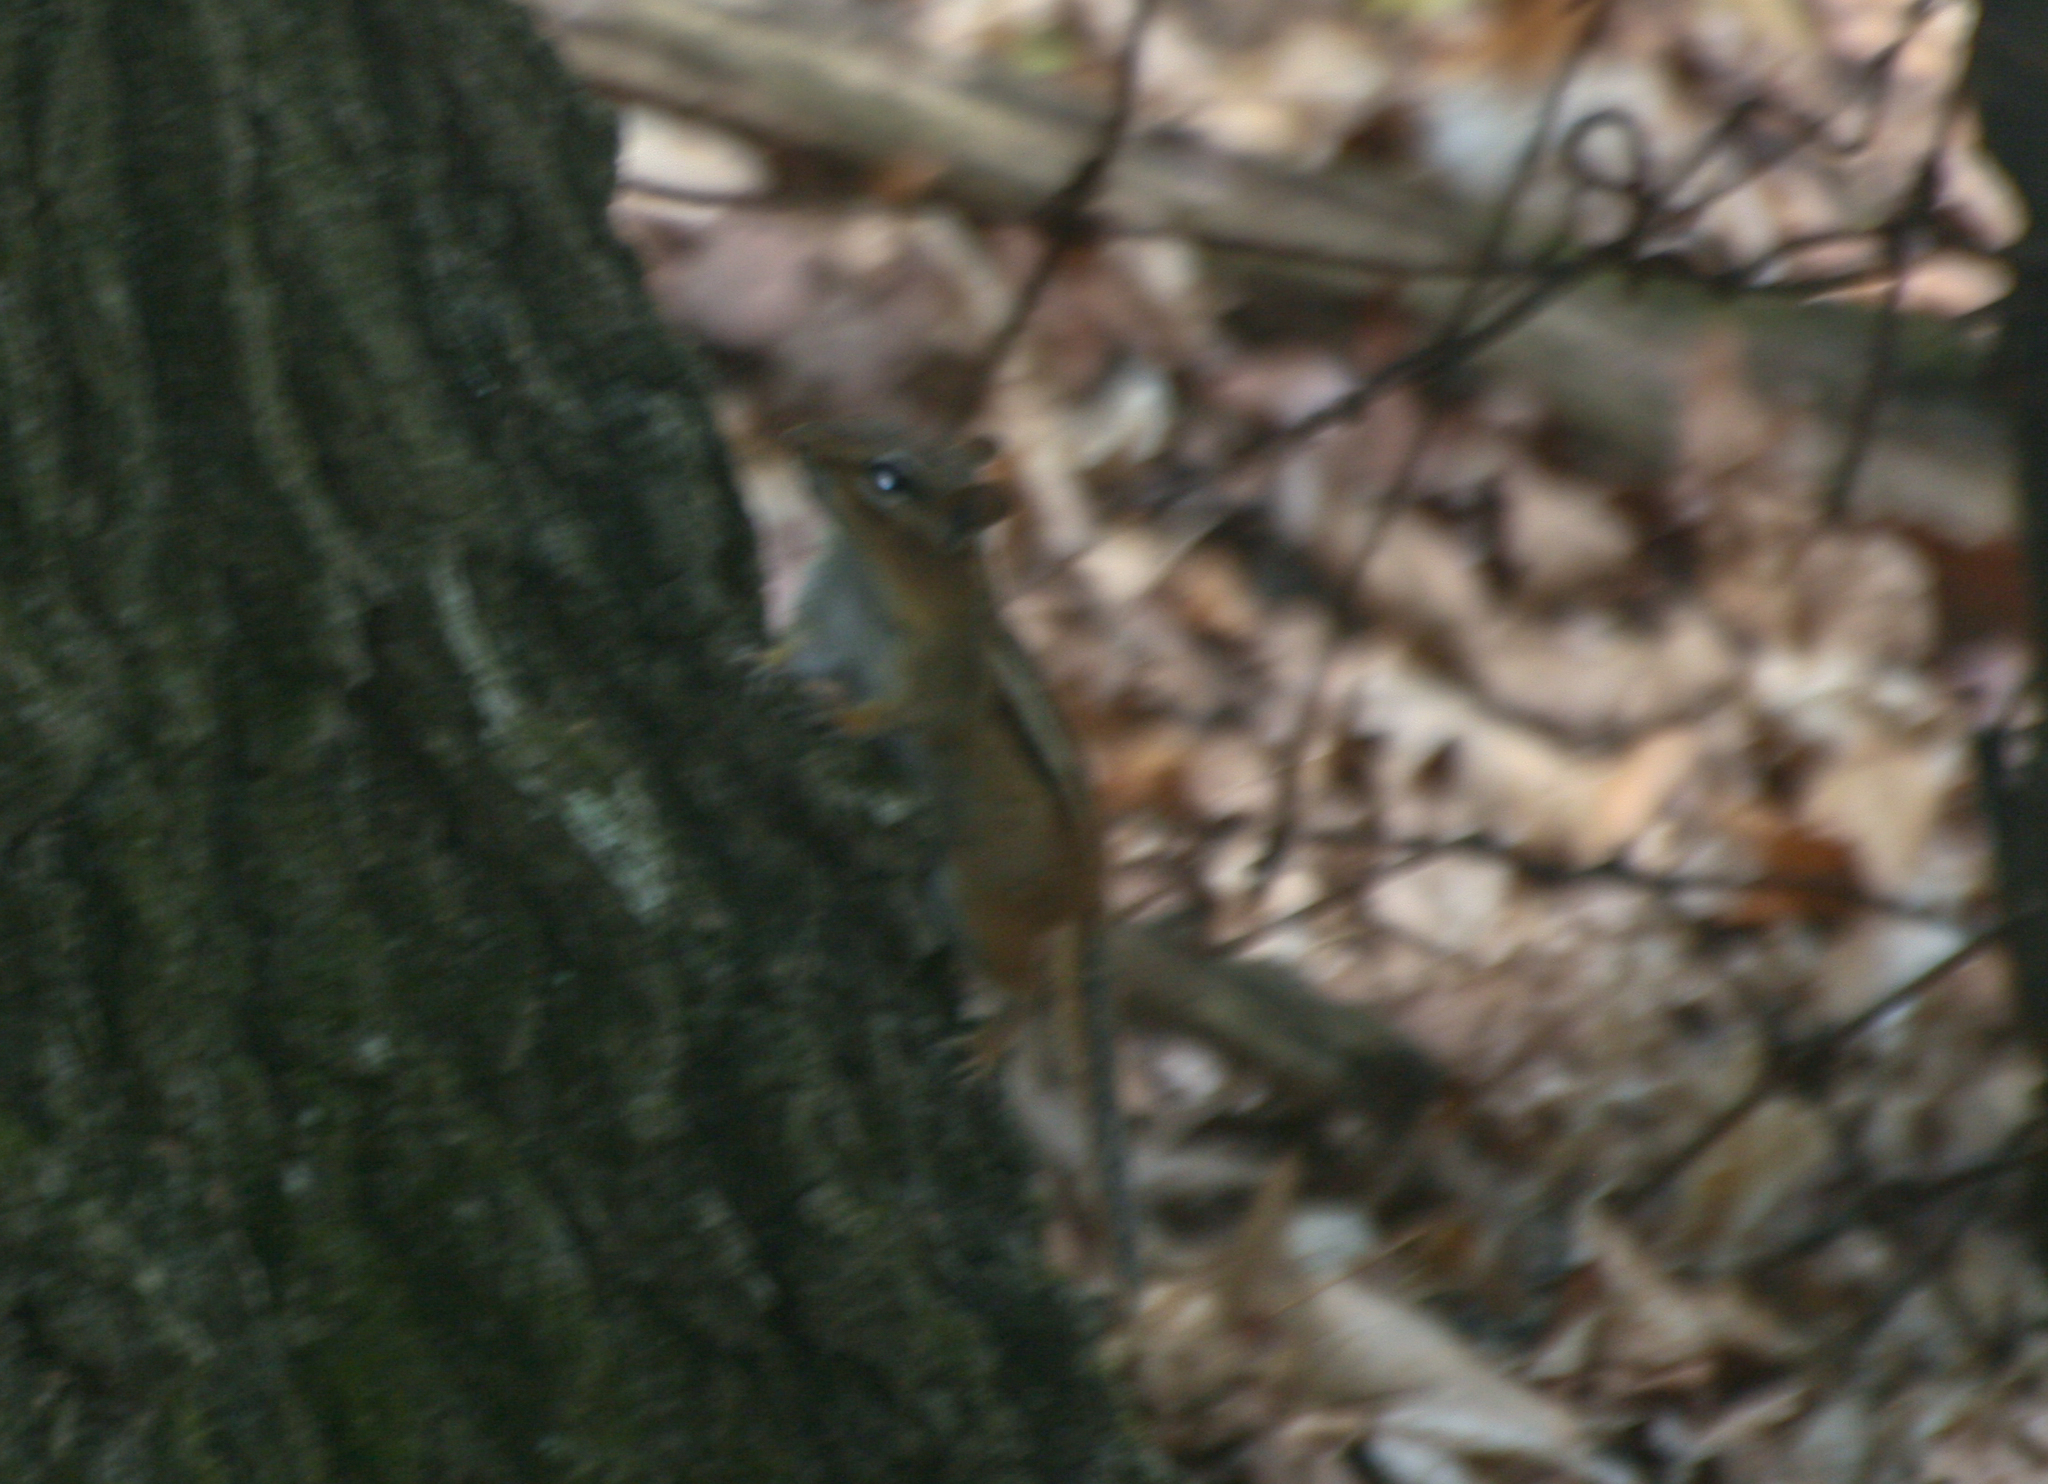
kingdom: Animalia
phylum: Chordata
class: Mammalia
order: Rodentia
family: Sciuridae
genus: Tamias
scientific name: Tamias striatus
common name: Eastern chipmunk
